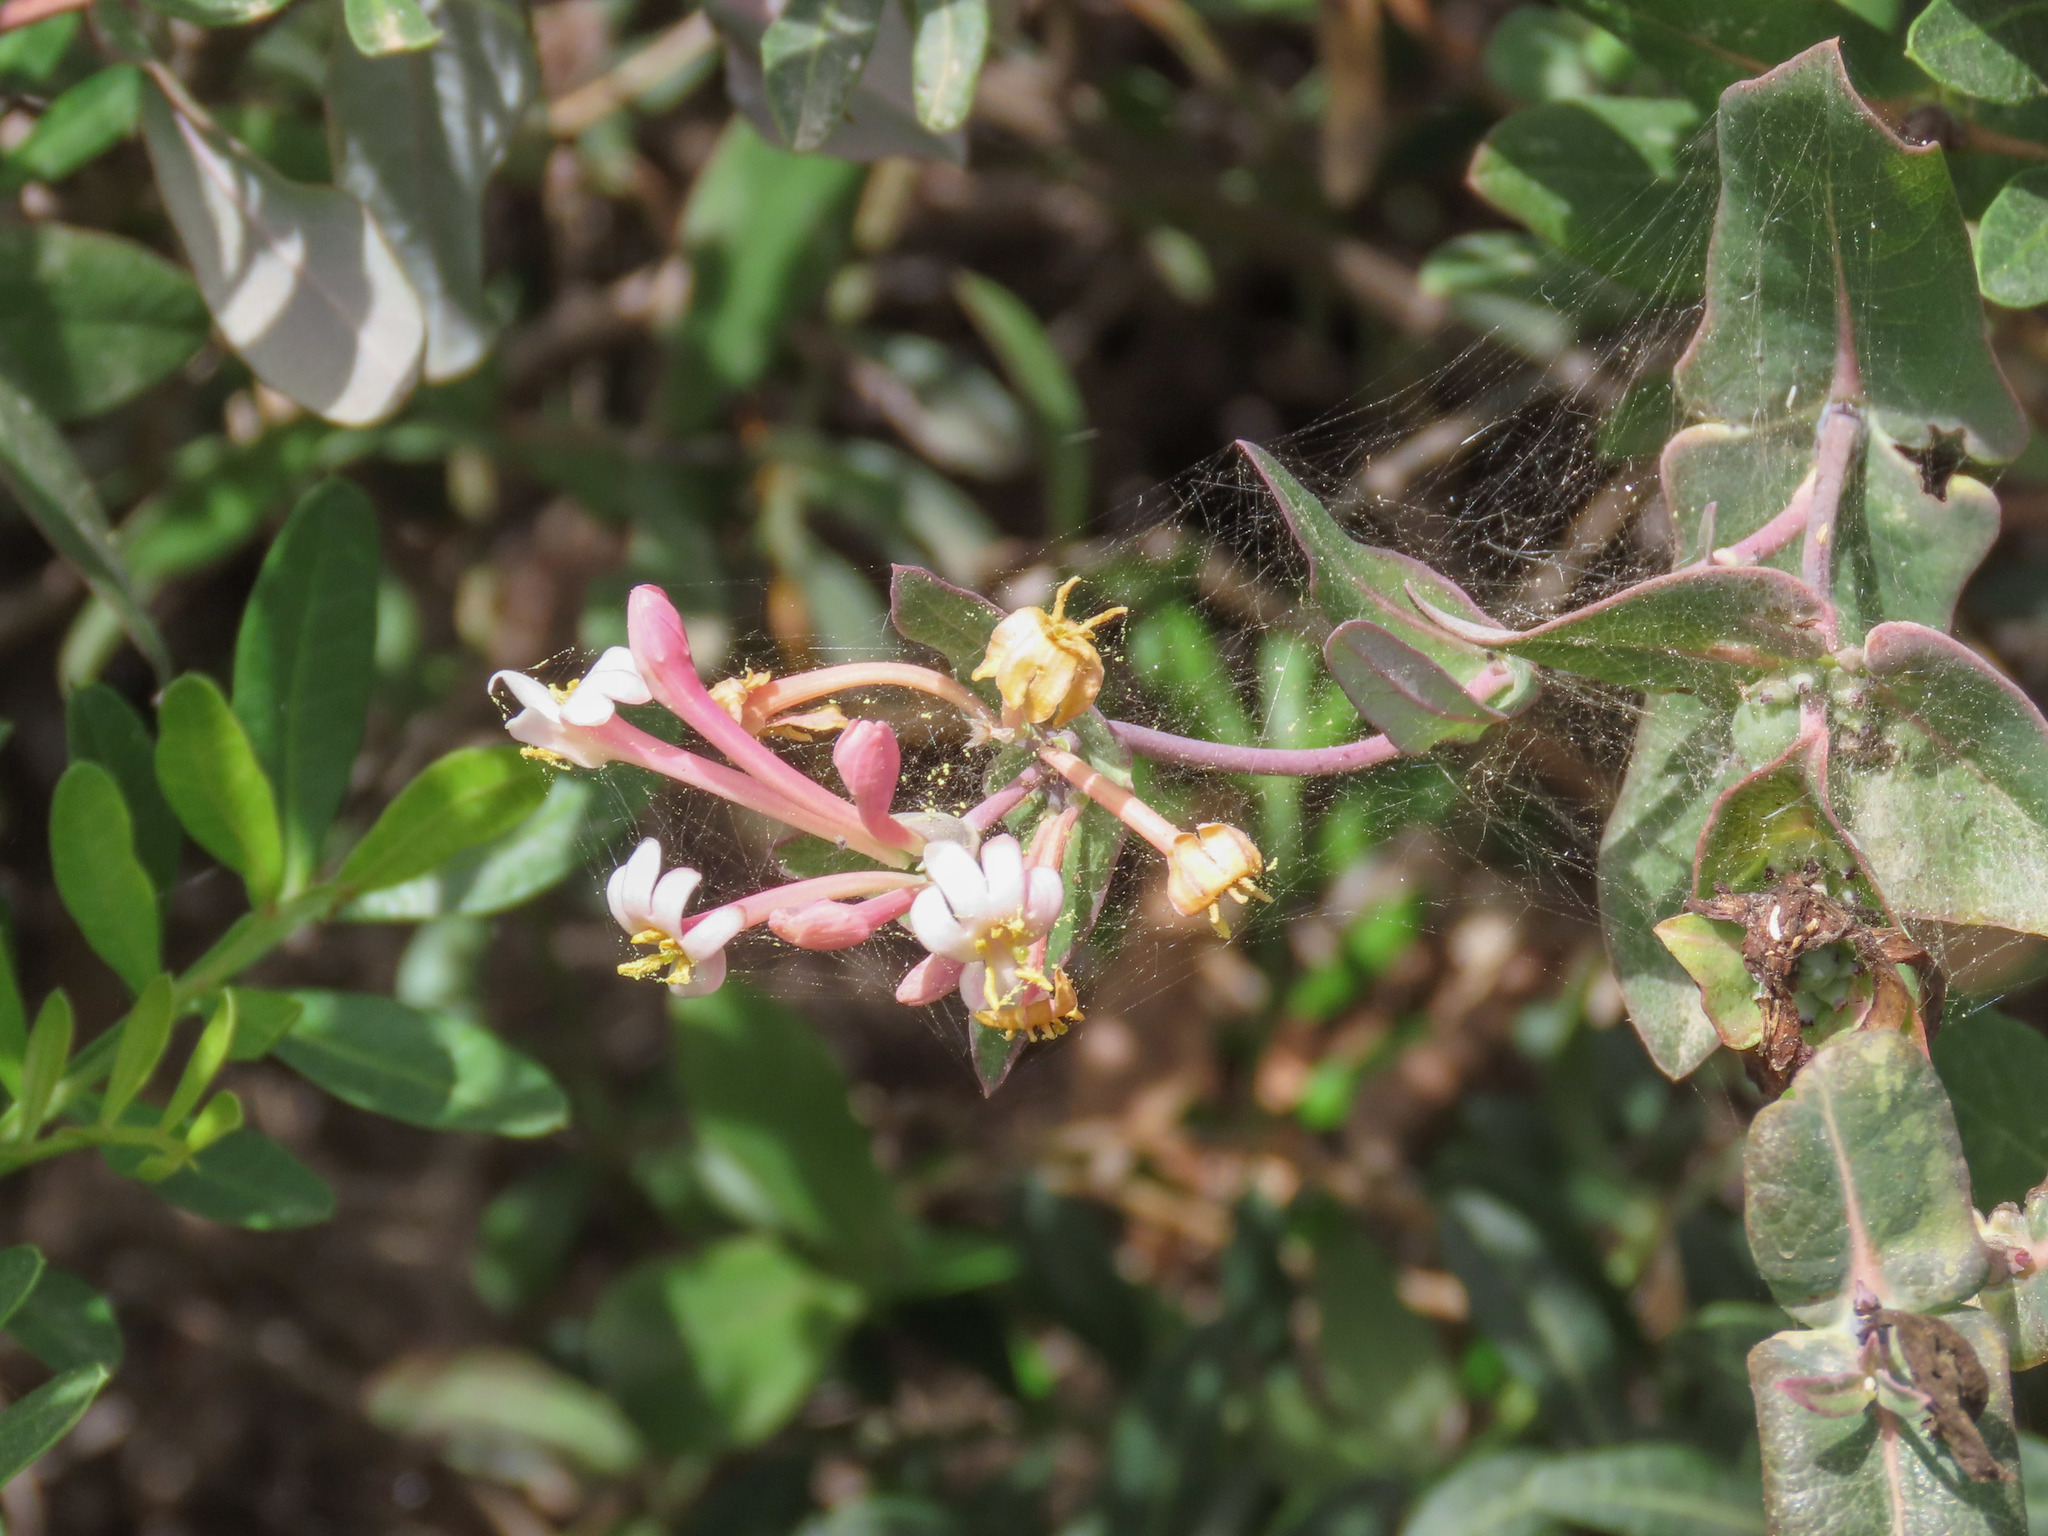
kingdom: Plantae
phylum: Tracheophyta
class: Magnoliopsida
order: Dipsacales
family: Caprifoliaceae
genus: Lonicera
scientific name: Lonicera implexa
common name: Minorca honeysuckle
